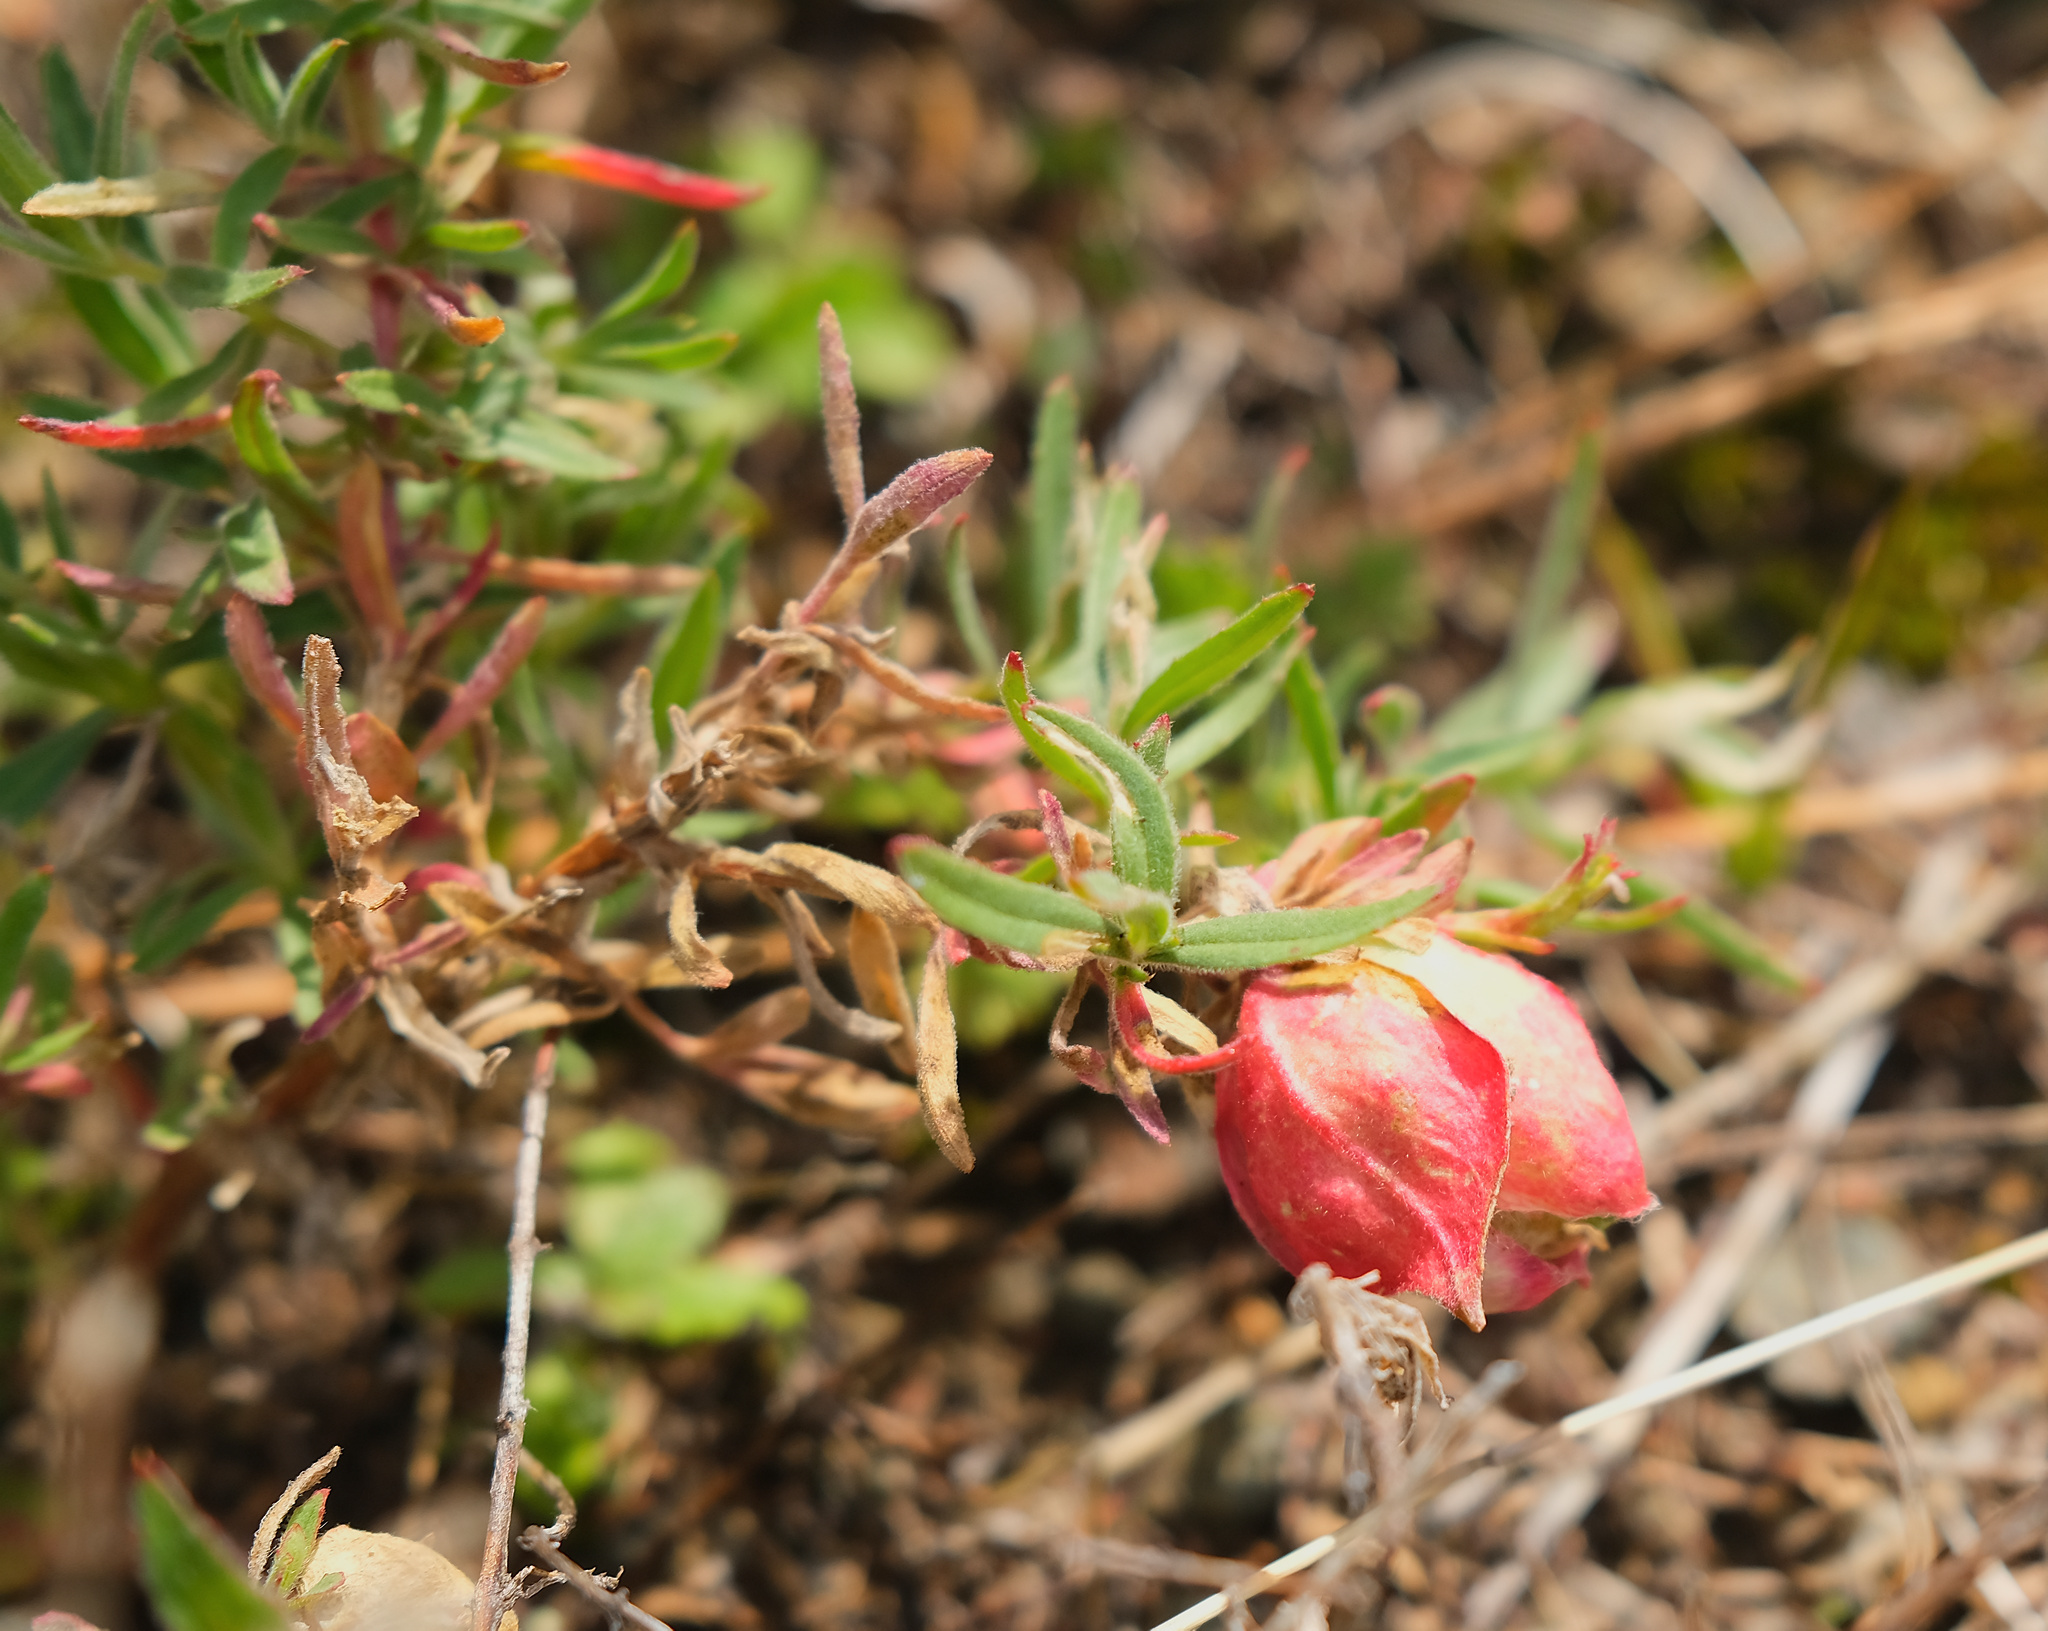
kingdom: Animalia
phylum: Arthropoda
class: Insecta
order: Diptera
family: Cecidomyiidae
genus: Contarinia
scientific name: Contarinia zauschneriae
